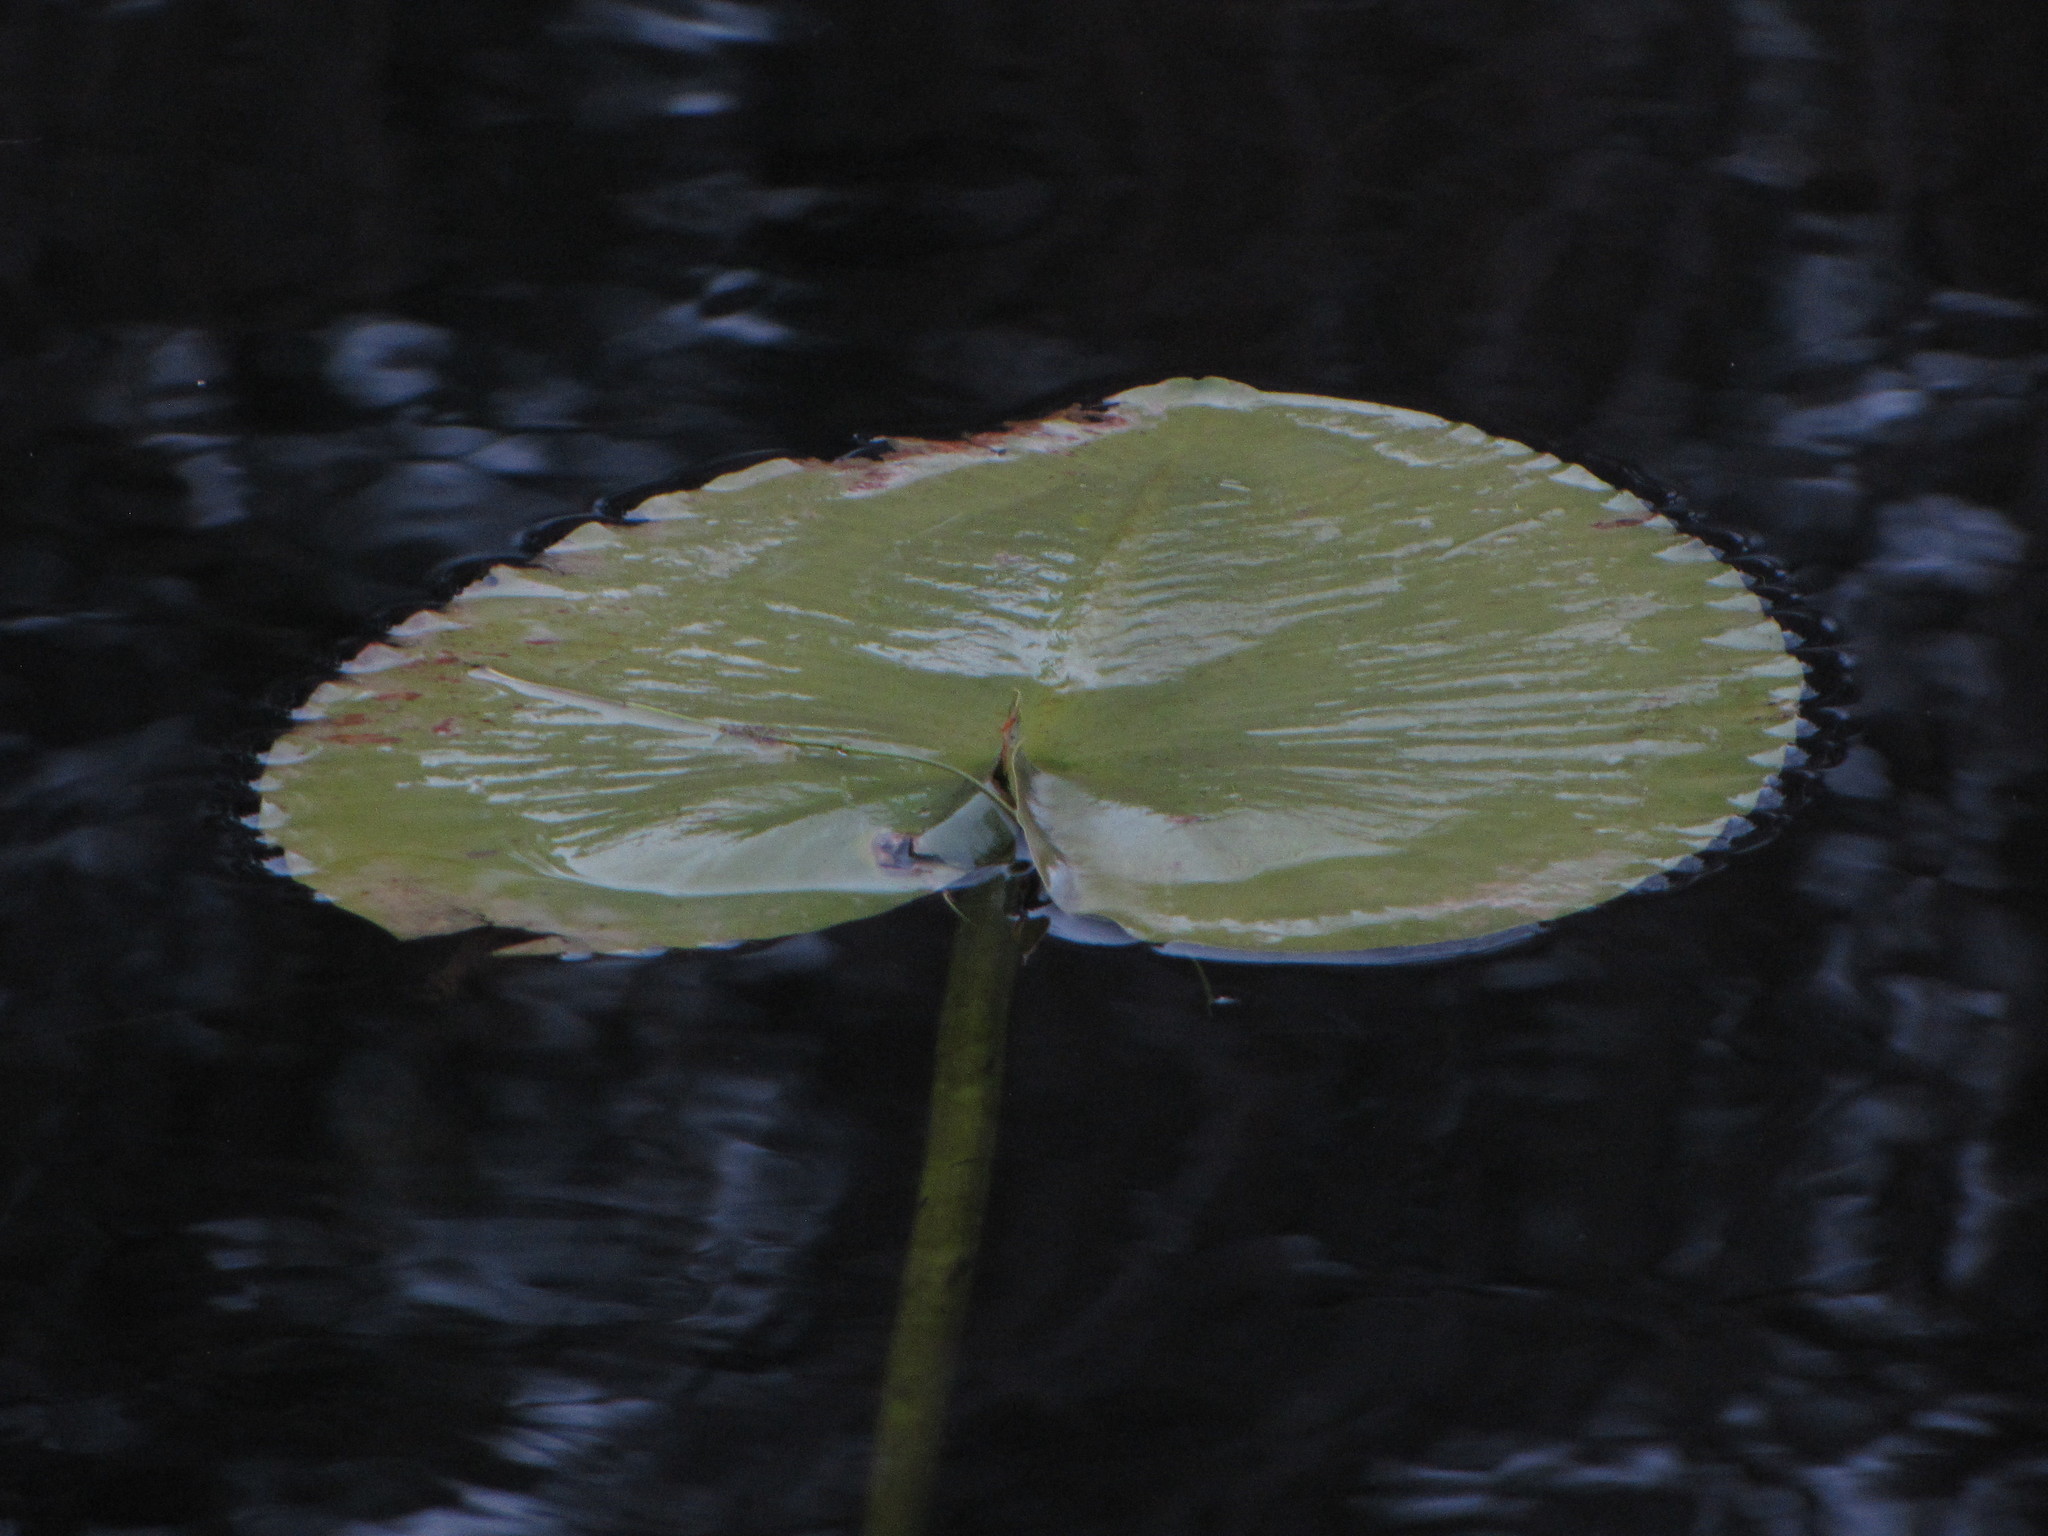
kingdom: Plantae
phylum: Tracheophyta
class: Magnoliopsida
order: Nymphaeales
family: Nymphaeaceae
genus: Nuphar
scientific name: Nuphar polysepala
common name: Rocky mountain cow-lily
